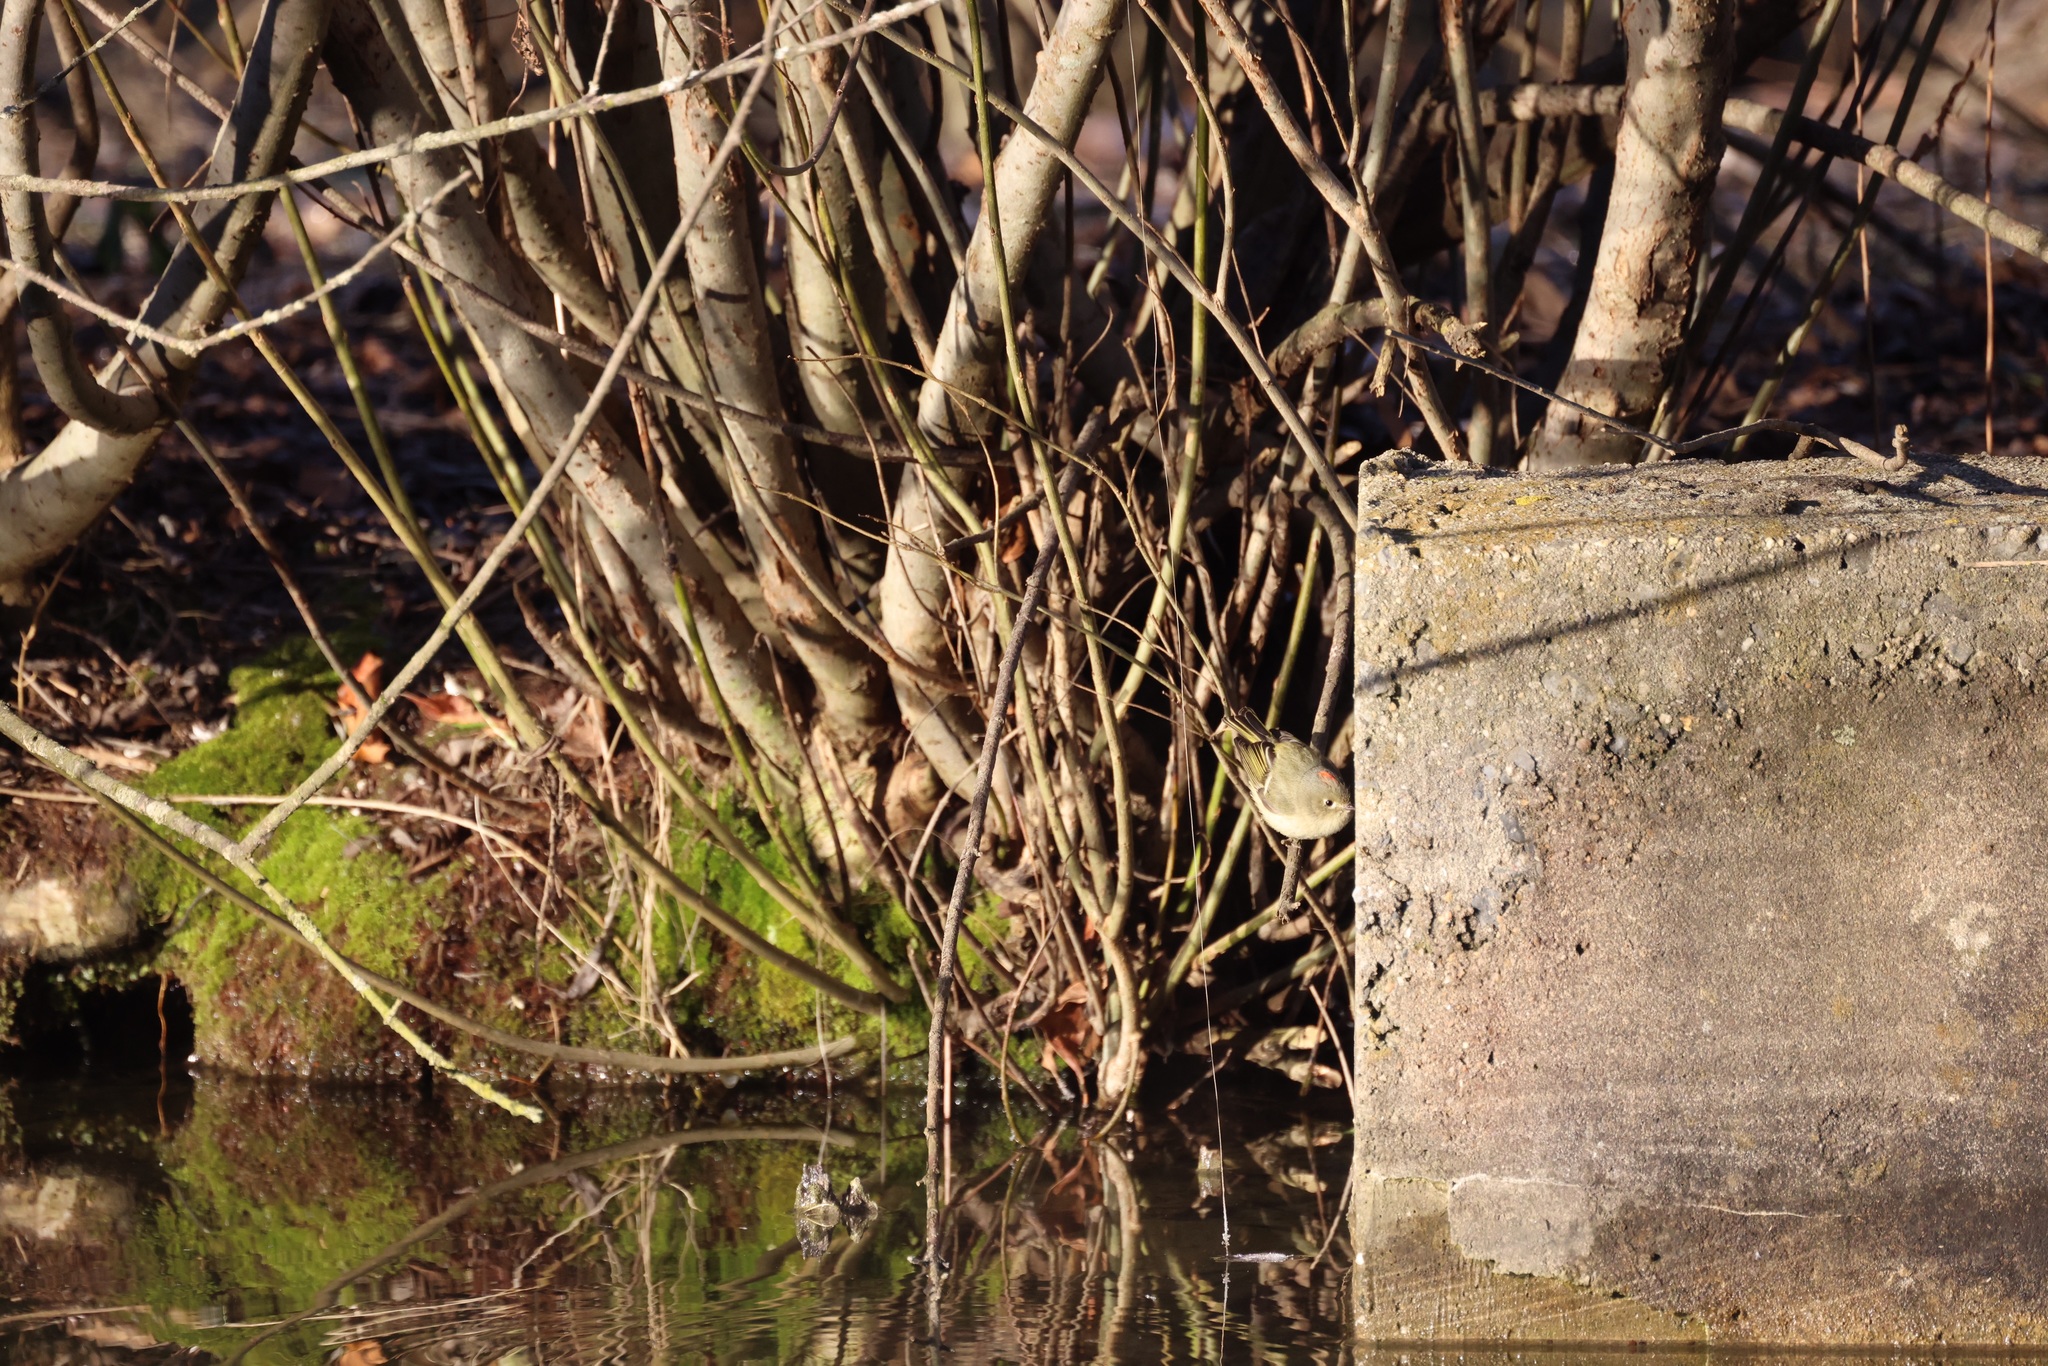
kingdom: Animalia
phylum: Chordata
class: Aves
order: Passeriformes
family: Regulidae
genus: Regulus
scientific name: Regulus calendula
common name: Ruby-crowned kinglet
